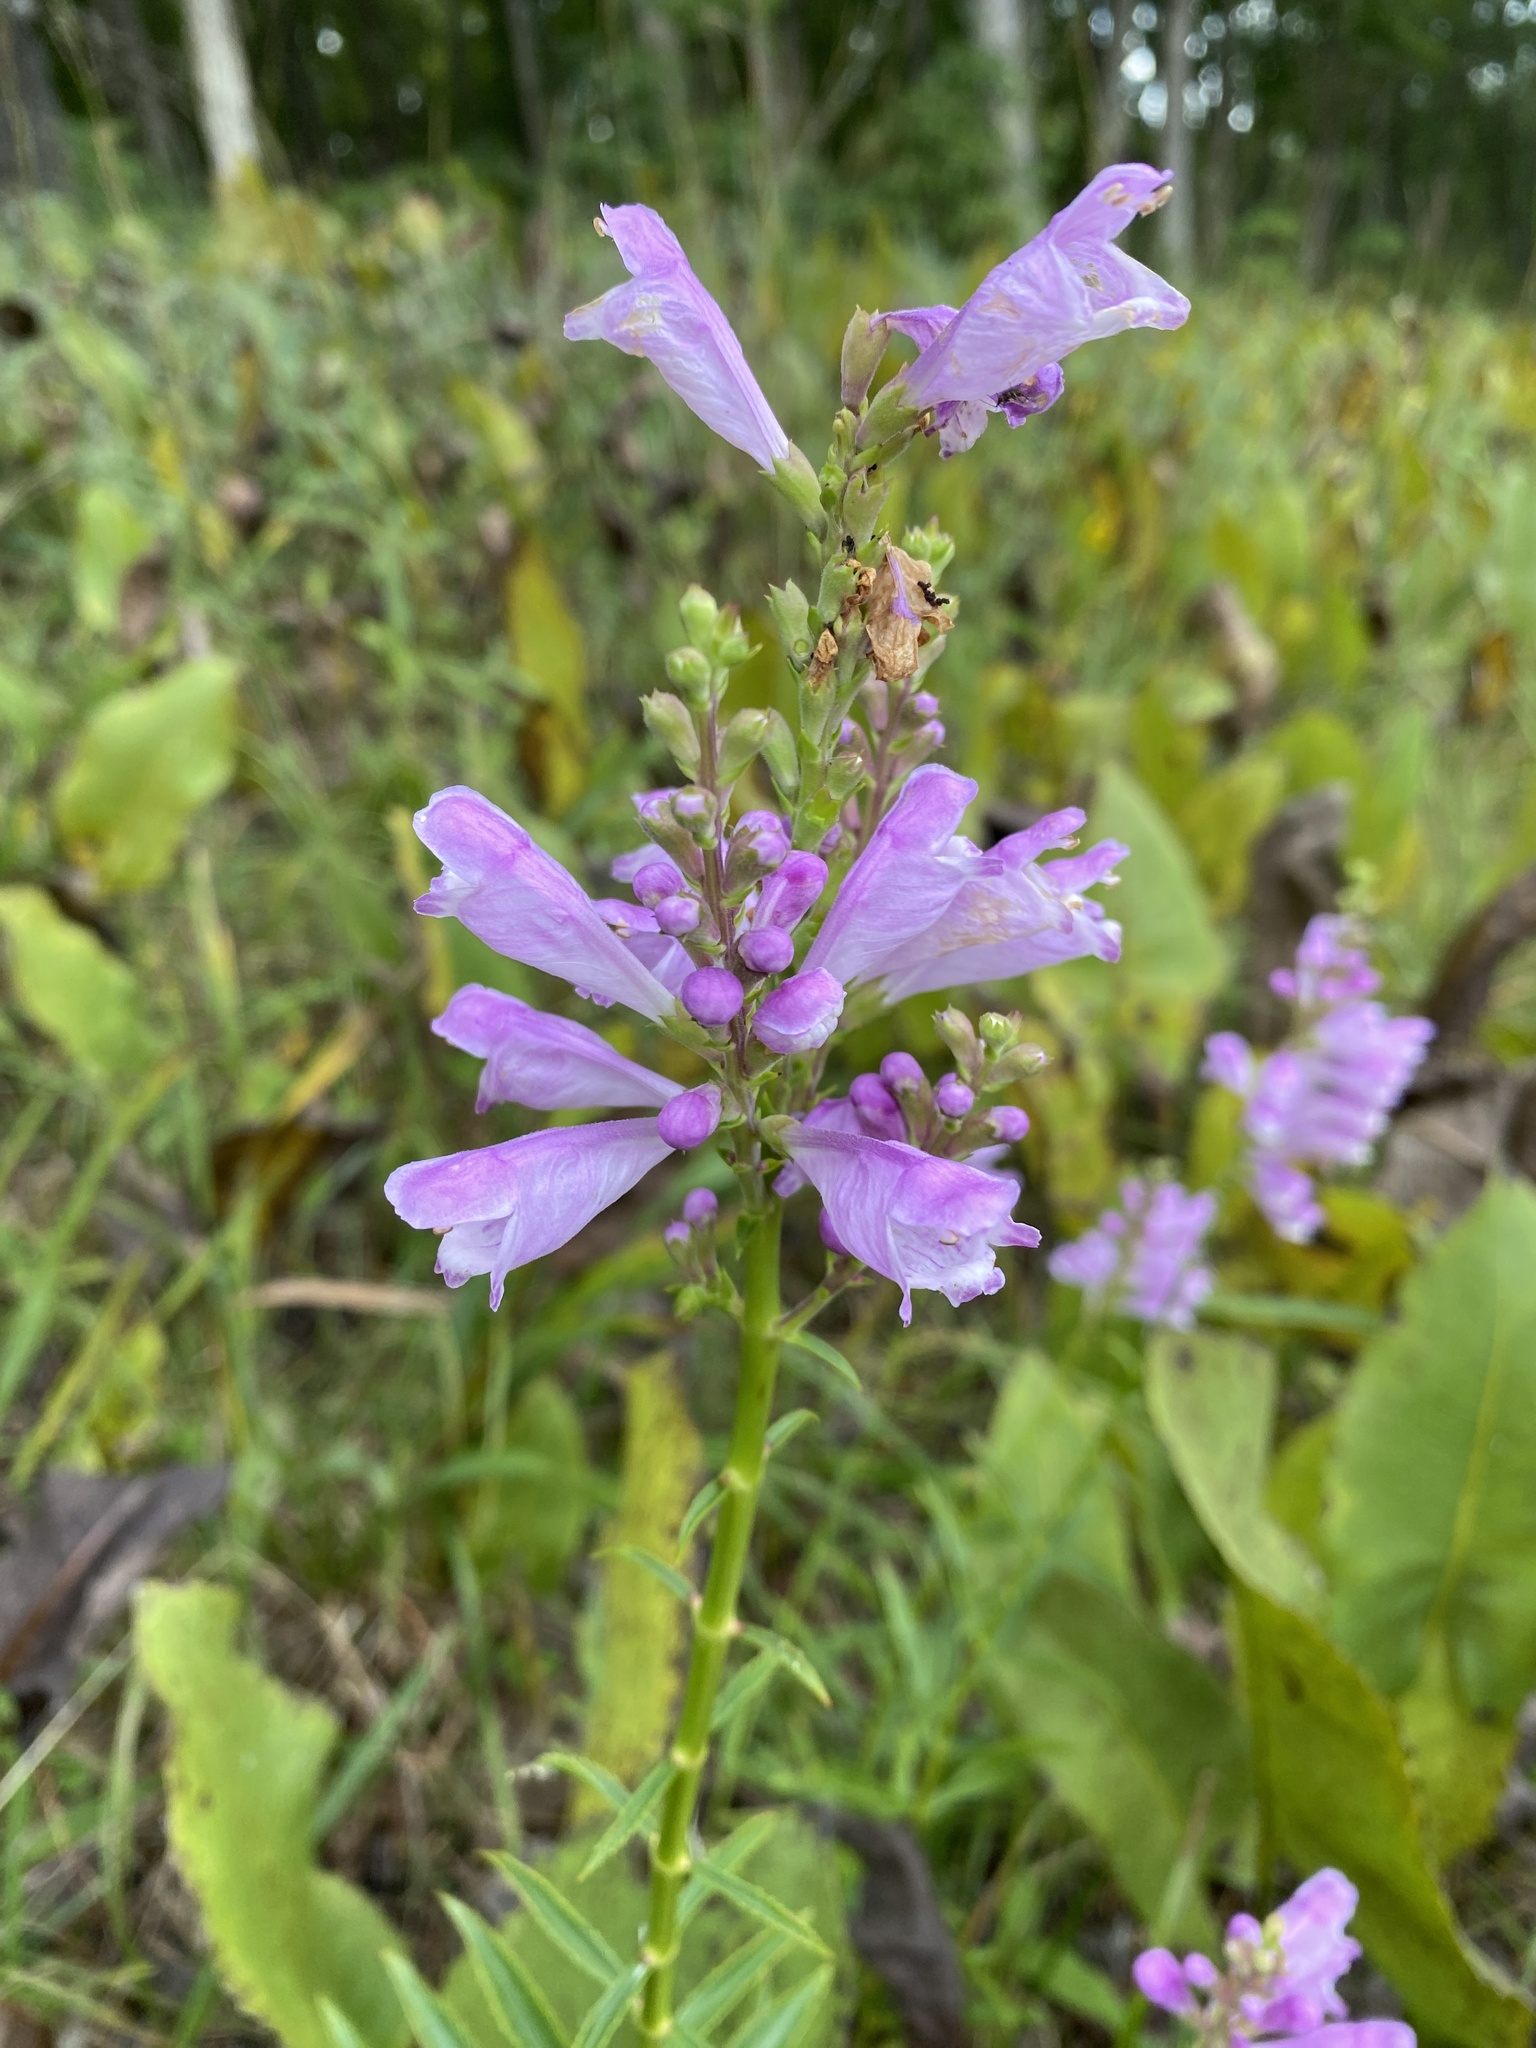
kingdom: Plantae
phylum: Tracheophyta
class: Magnoliopsida
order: Lamiales
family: Lamiaceae
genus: Physostegia
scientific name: Physostegia virginiana
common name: Obedient-plant
